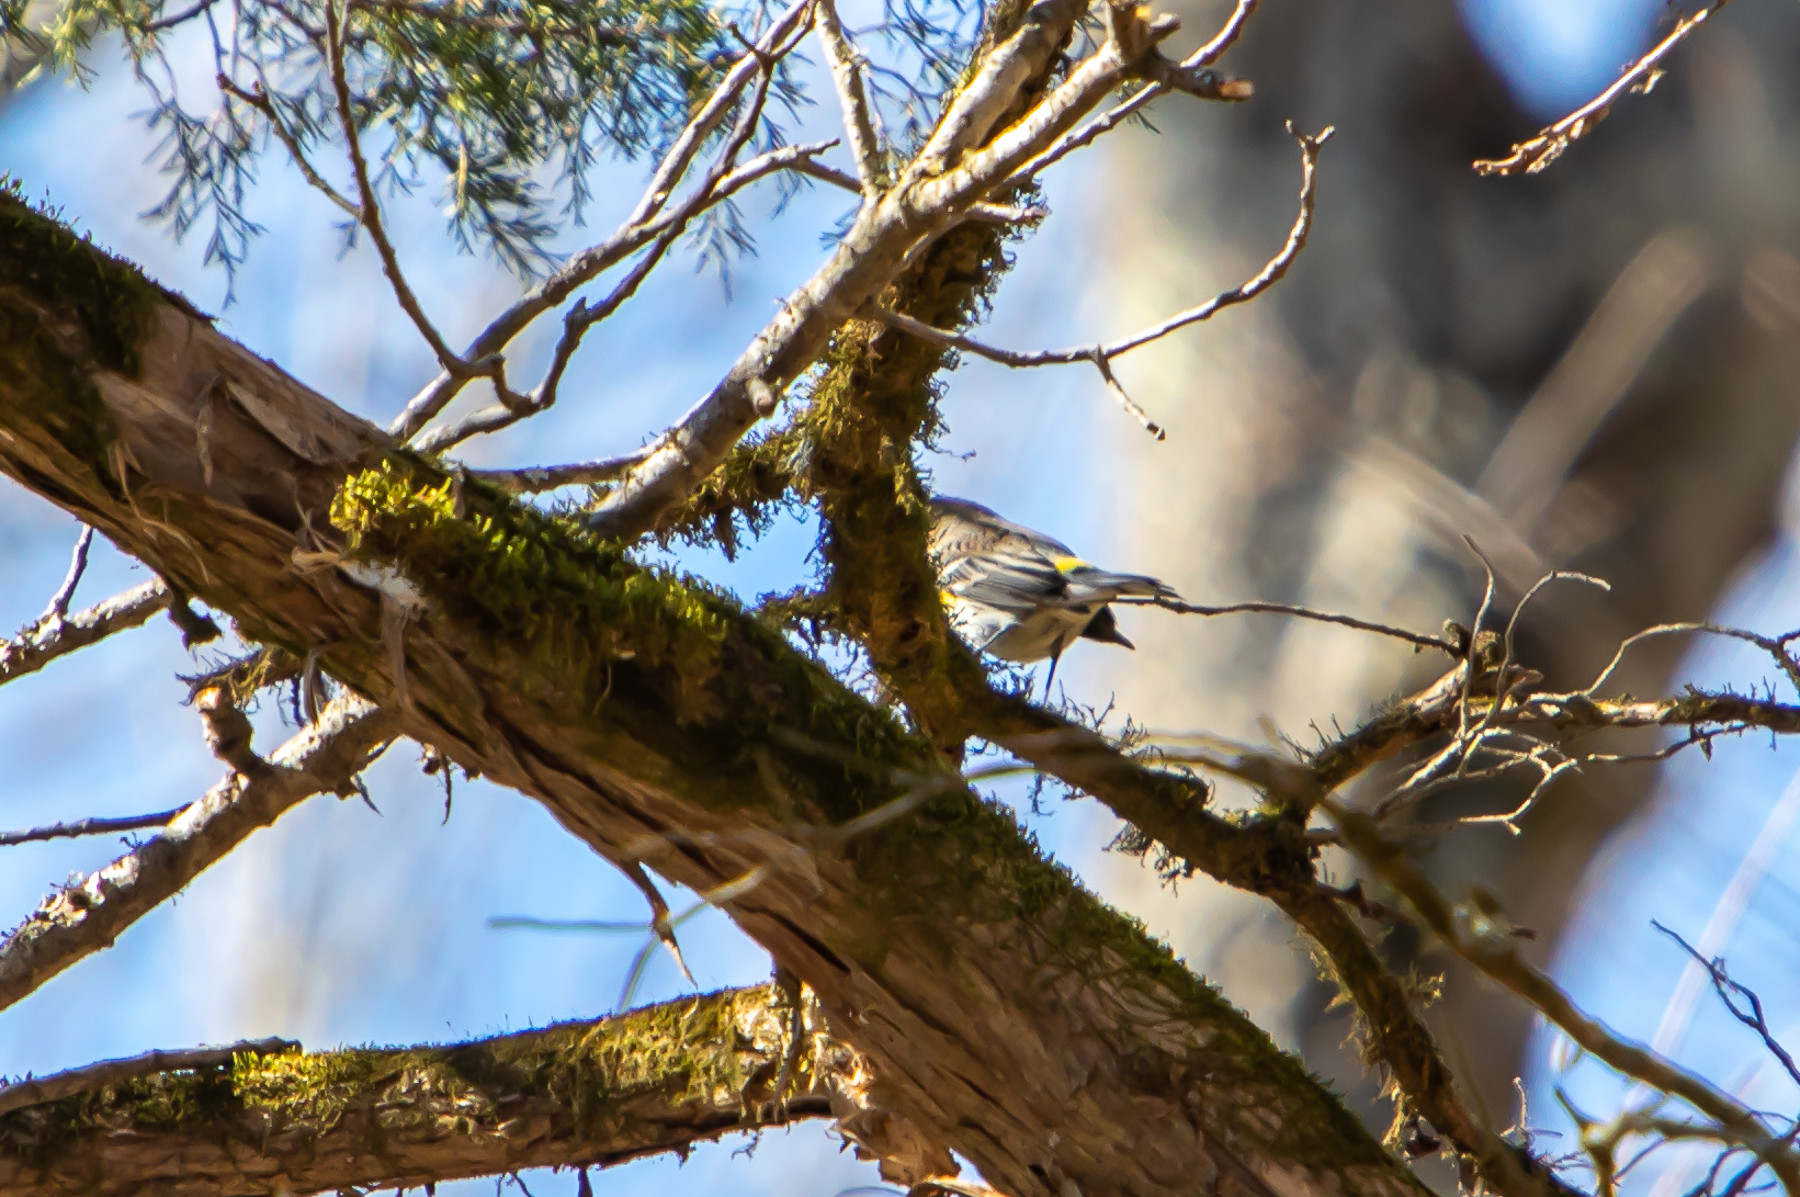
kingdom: Animalia
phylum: Chordata
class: Aves
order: Passeriformes
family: Parulidae
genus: Setophaga
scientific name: Setophaga coronata
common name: Myrtle warbler
